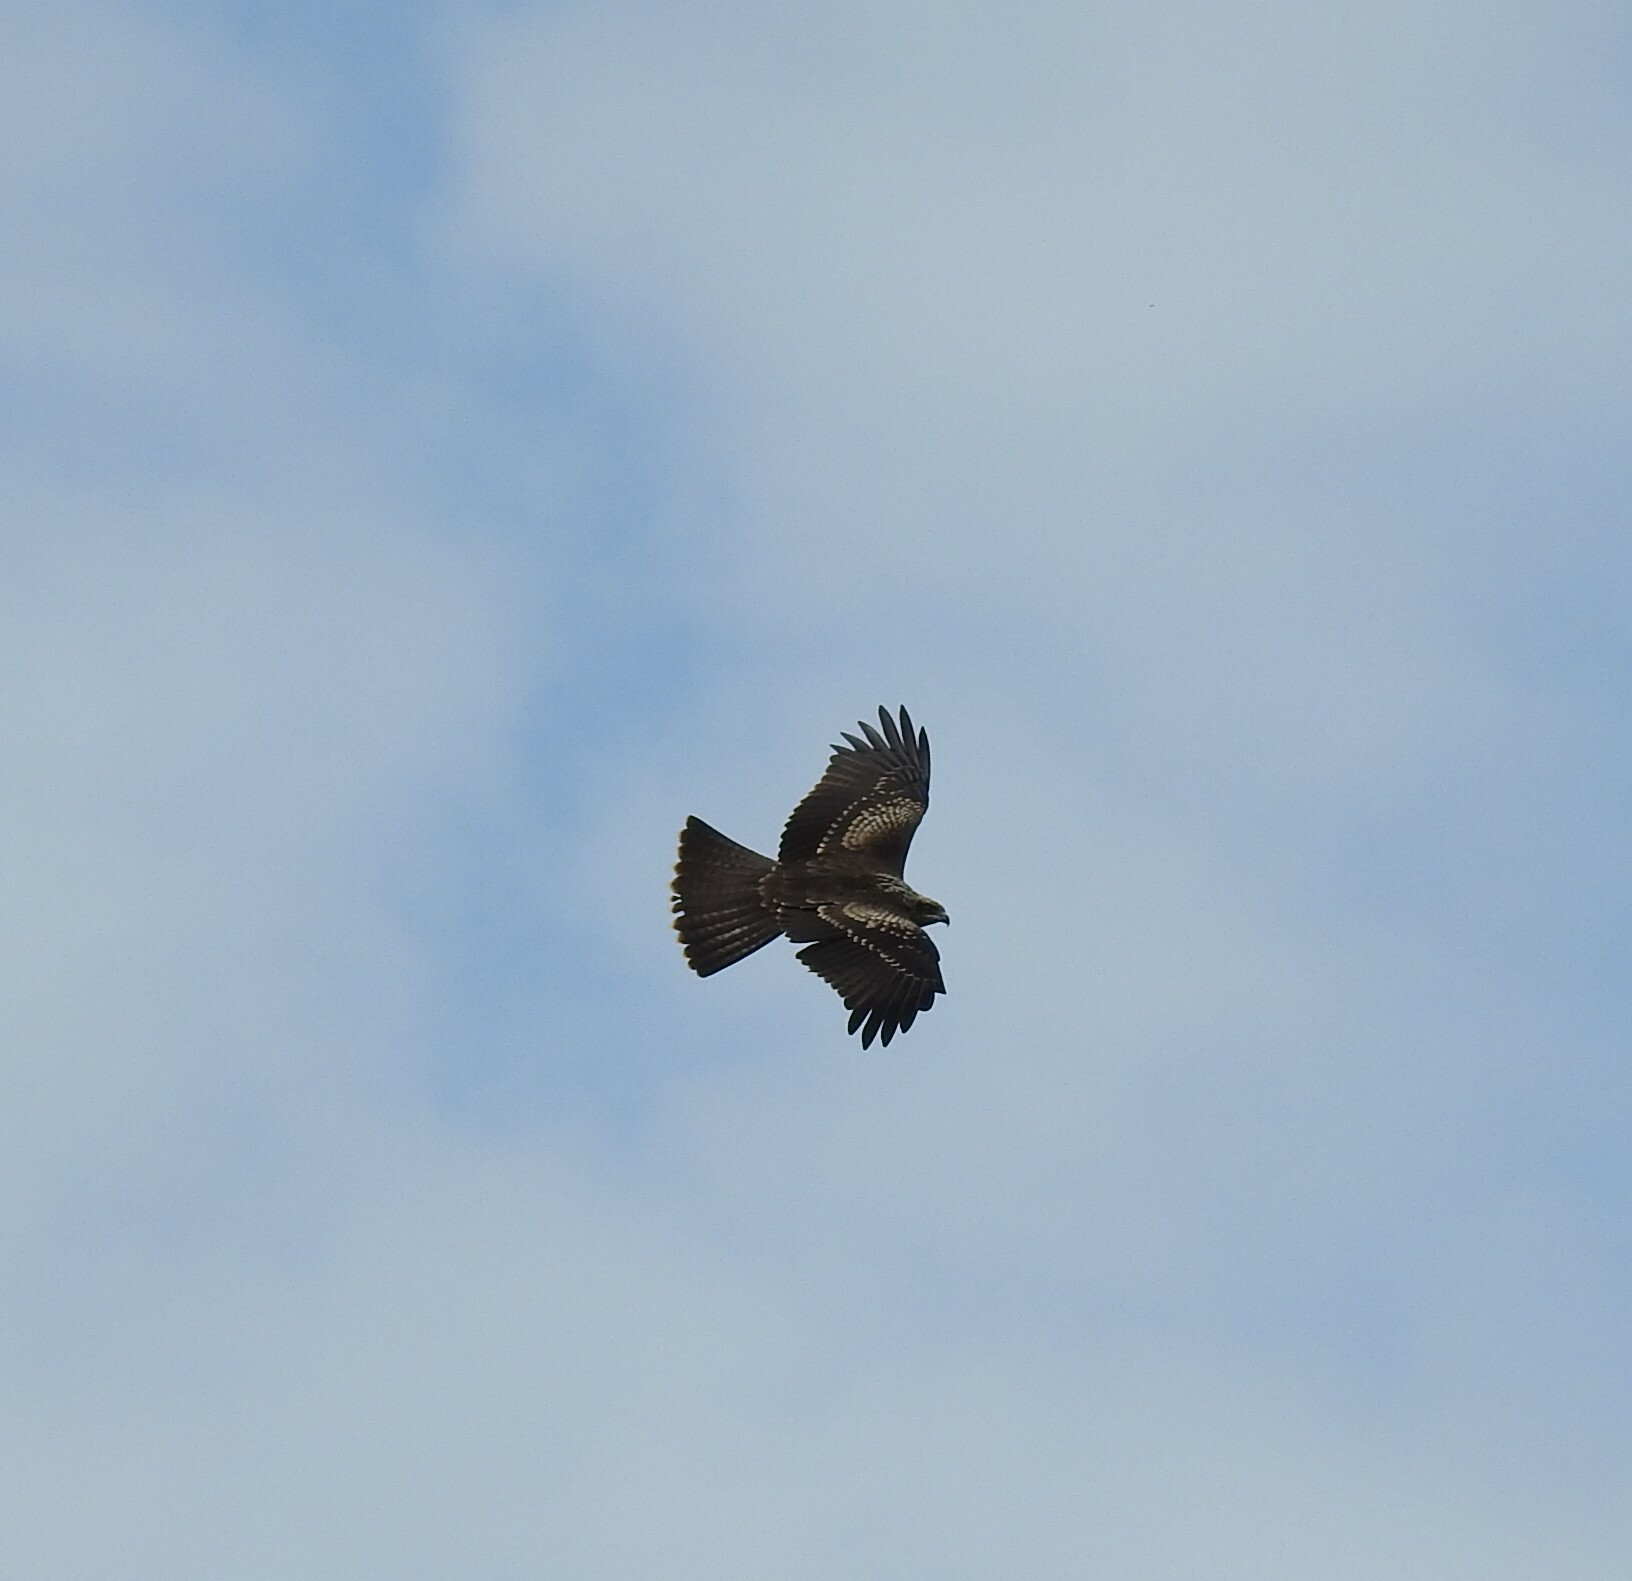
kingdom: Animalia
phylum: Chordata
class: Aves
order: Accipitriformes
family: Accipitridae
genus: Milvus
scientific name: Milvus migrans
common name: Black kite
